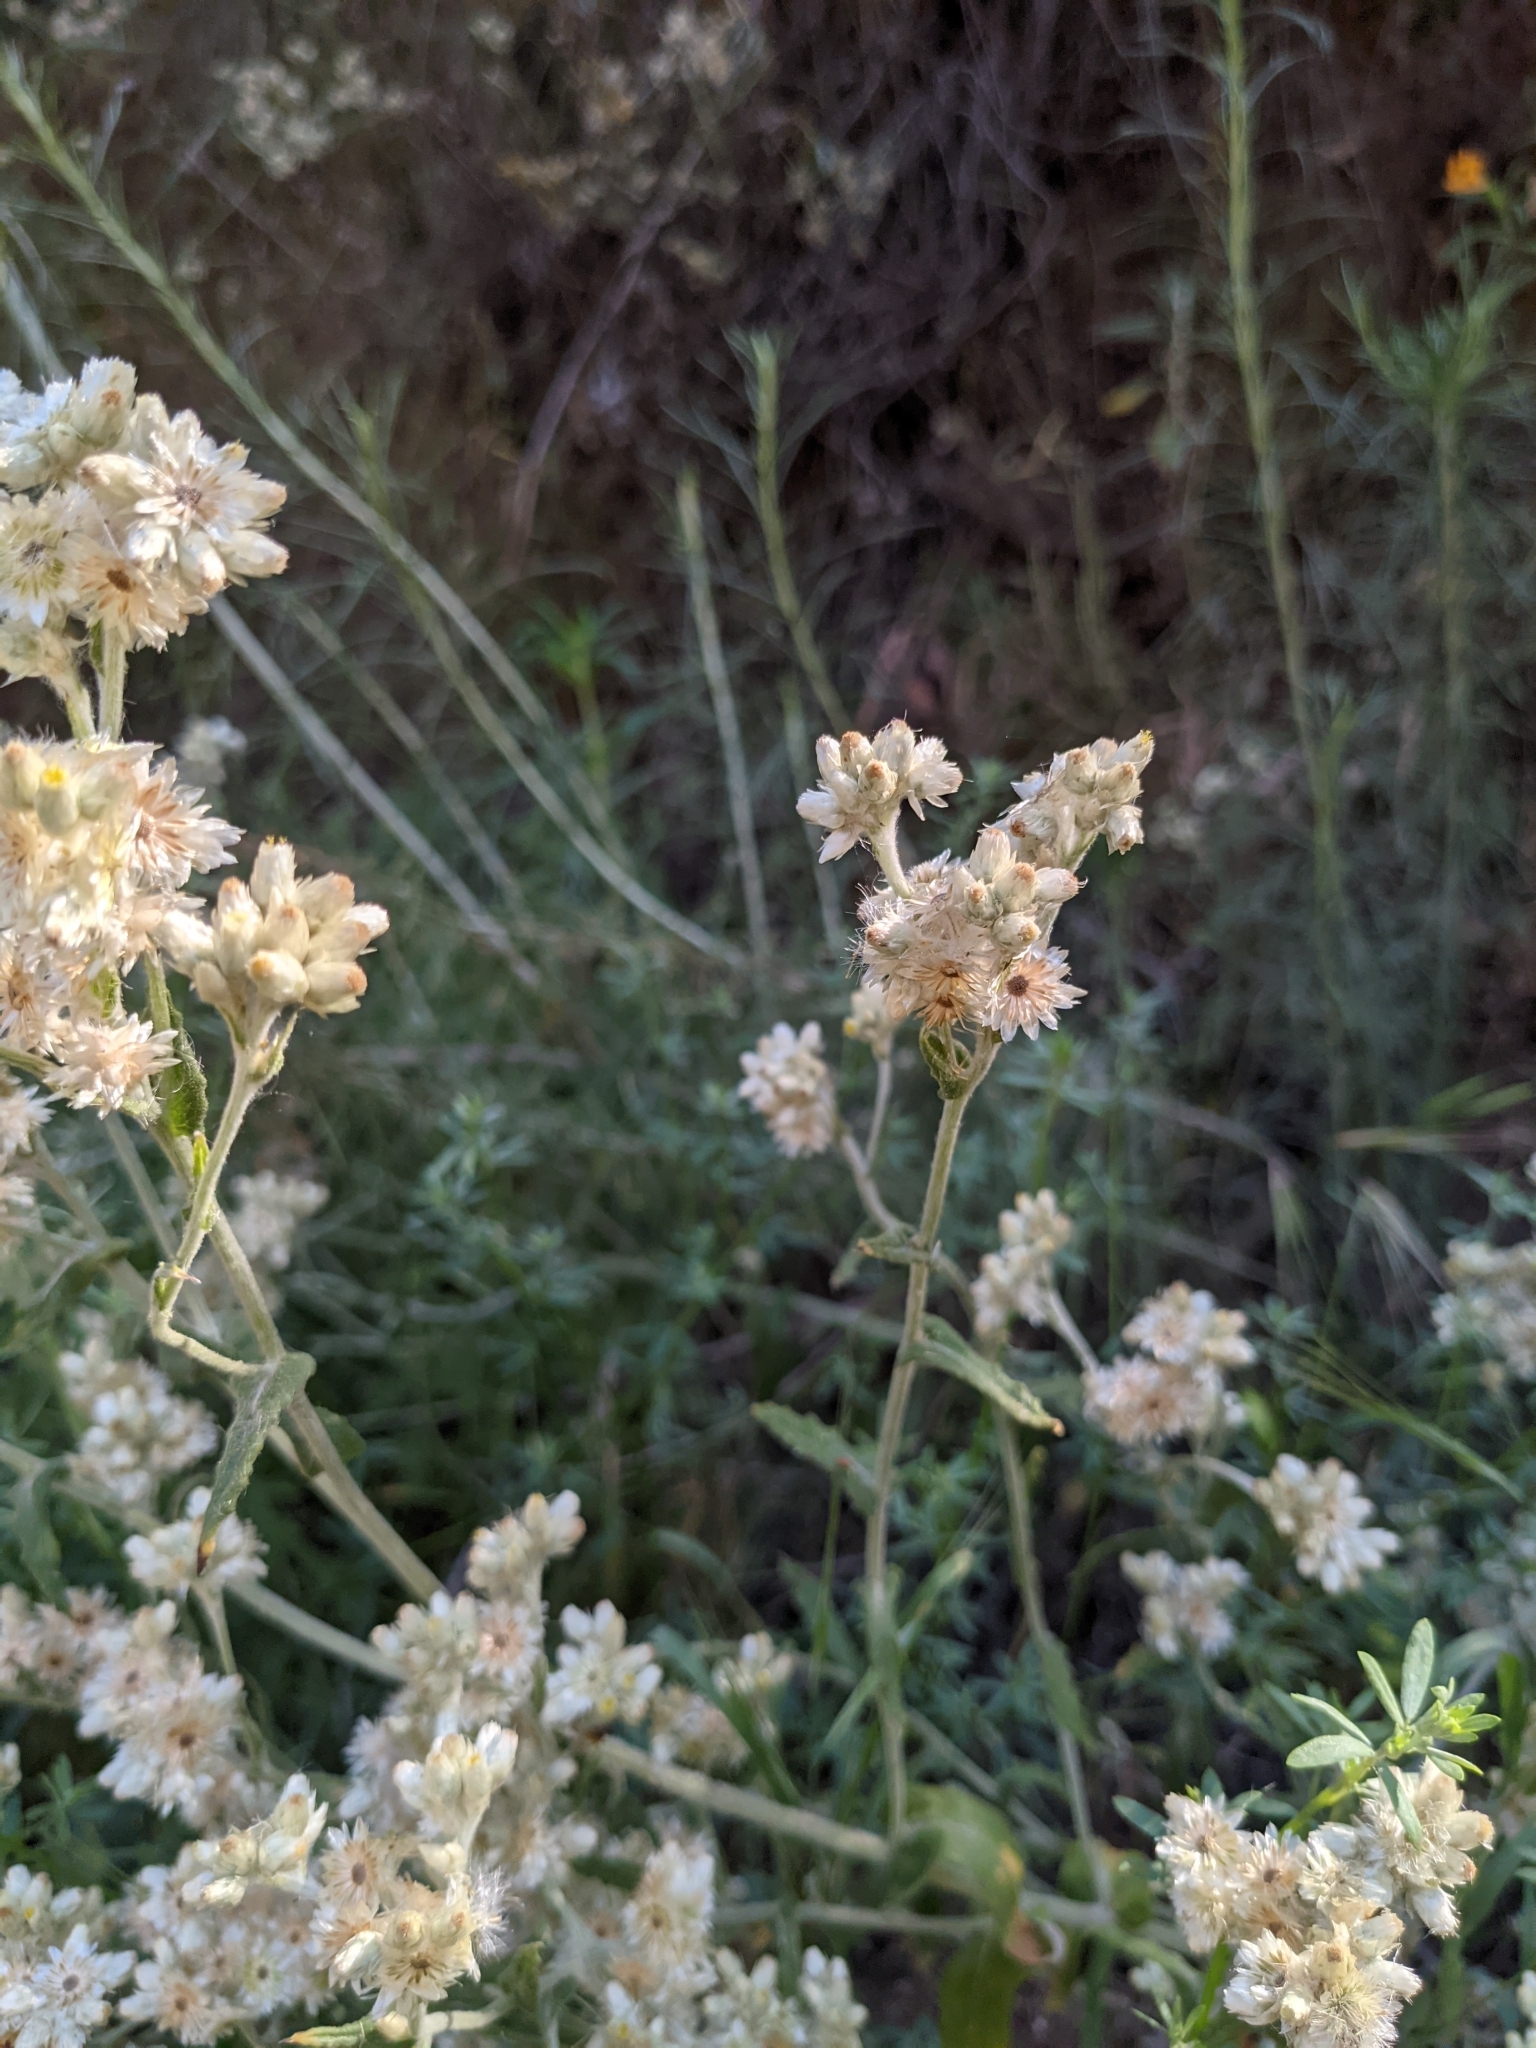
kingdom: Plantae
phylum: Tracheophyta
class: Magnoliopsida
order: Asterales
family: Asteraceae
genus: Pseudognaphalium
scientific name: Pseudognaphalium biolettii
